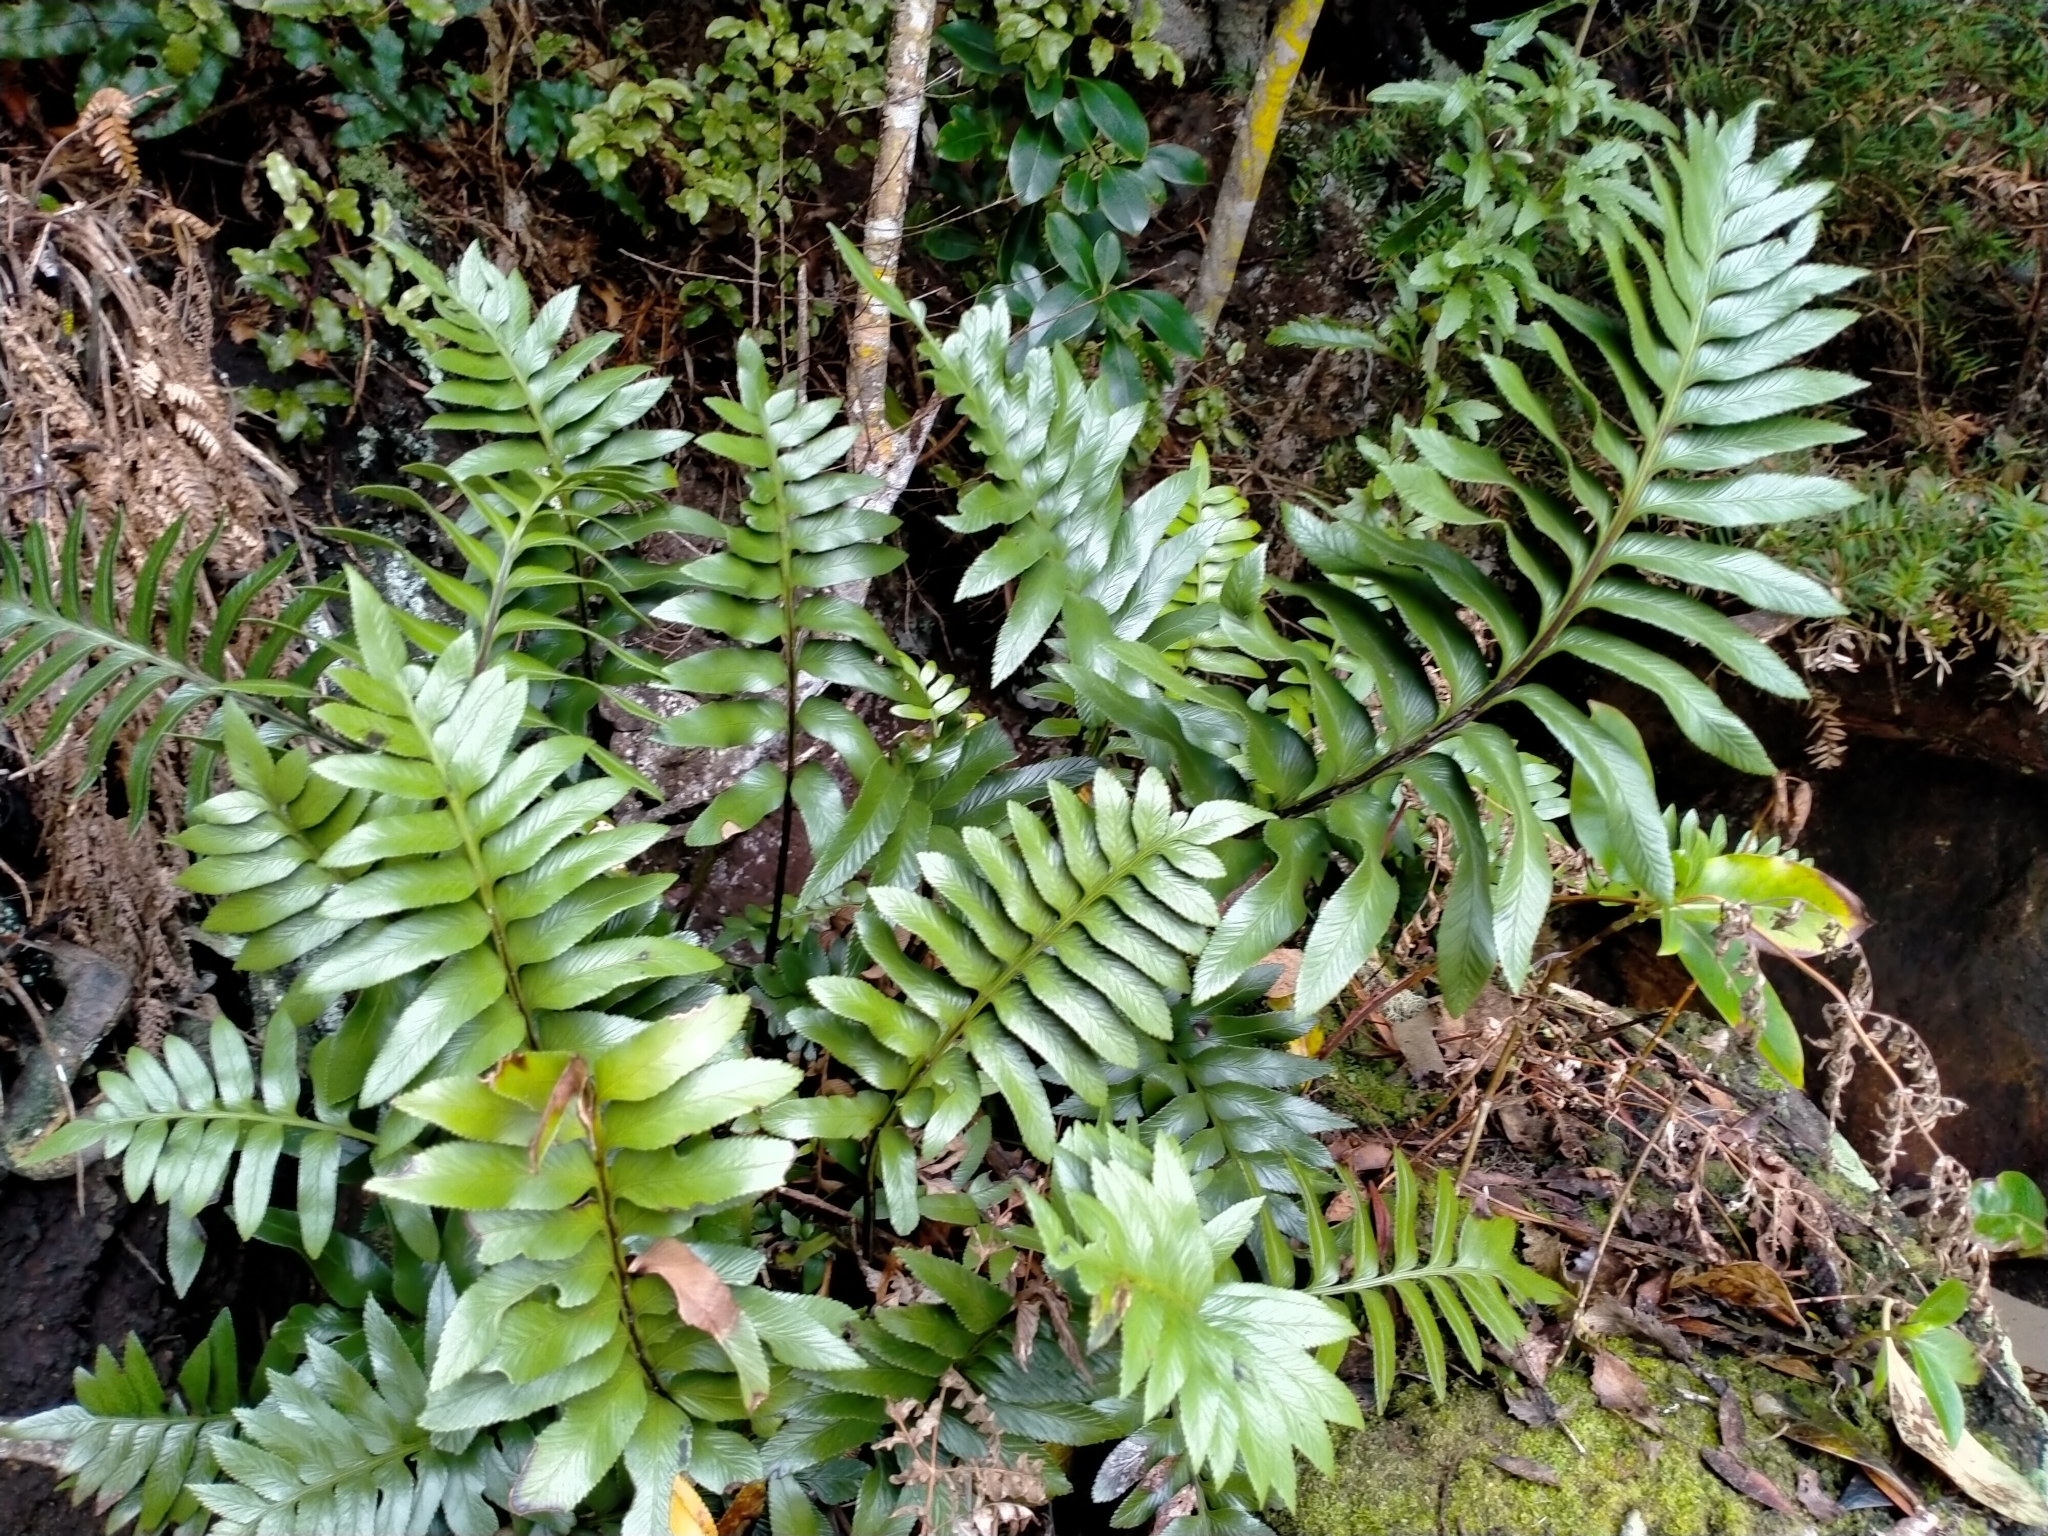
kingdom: Plantae
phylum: Tracheophyta
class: Polypodiopsida
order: Polypodiales
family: Aspleniaceae
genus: Asplenium
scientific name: Asplenium obtusatum
